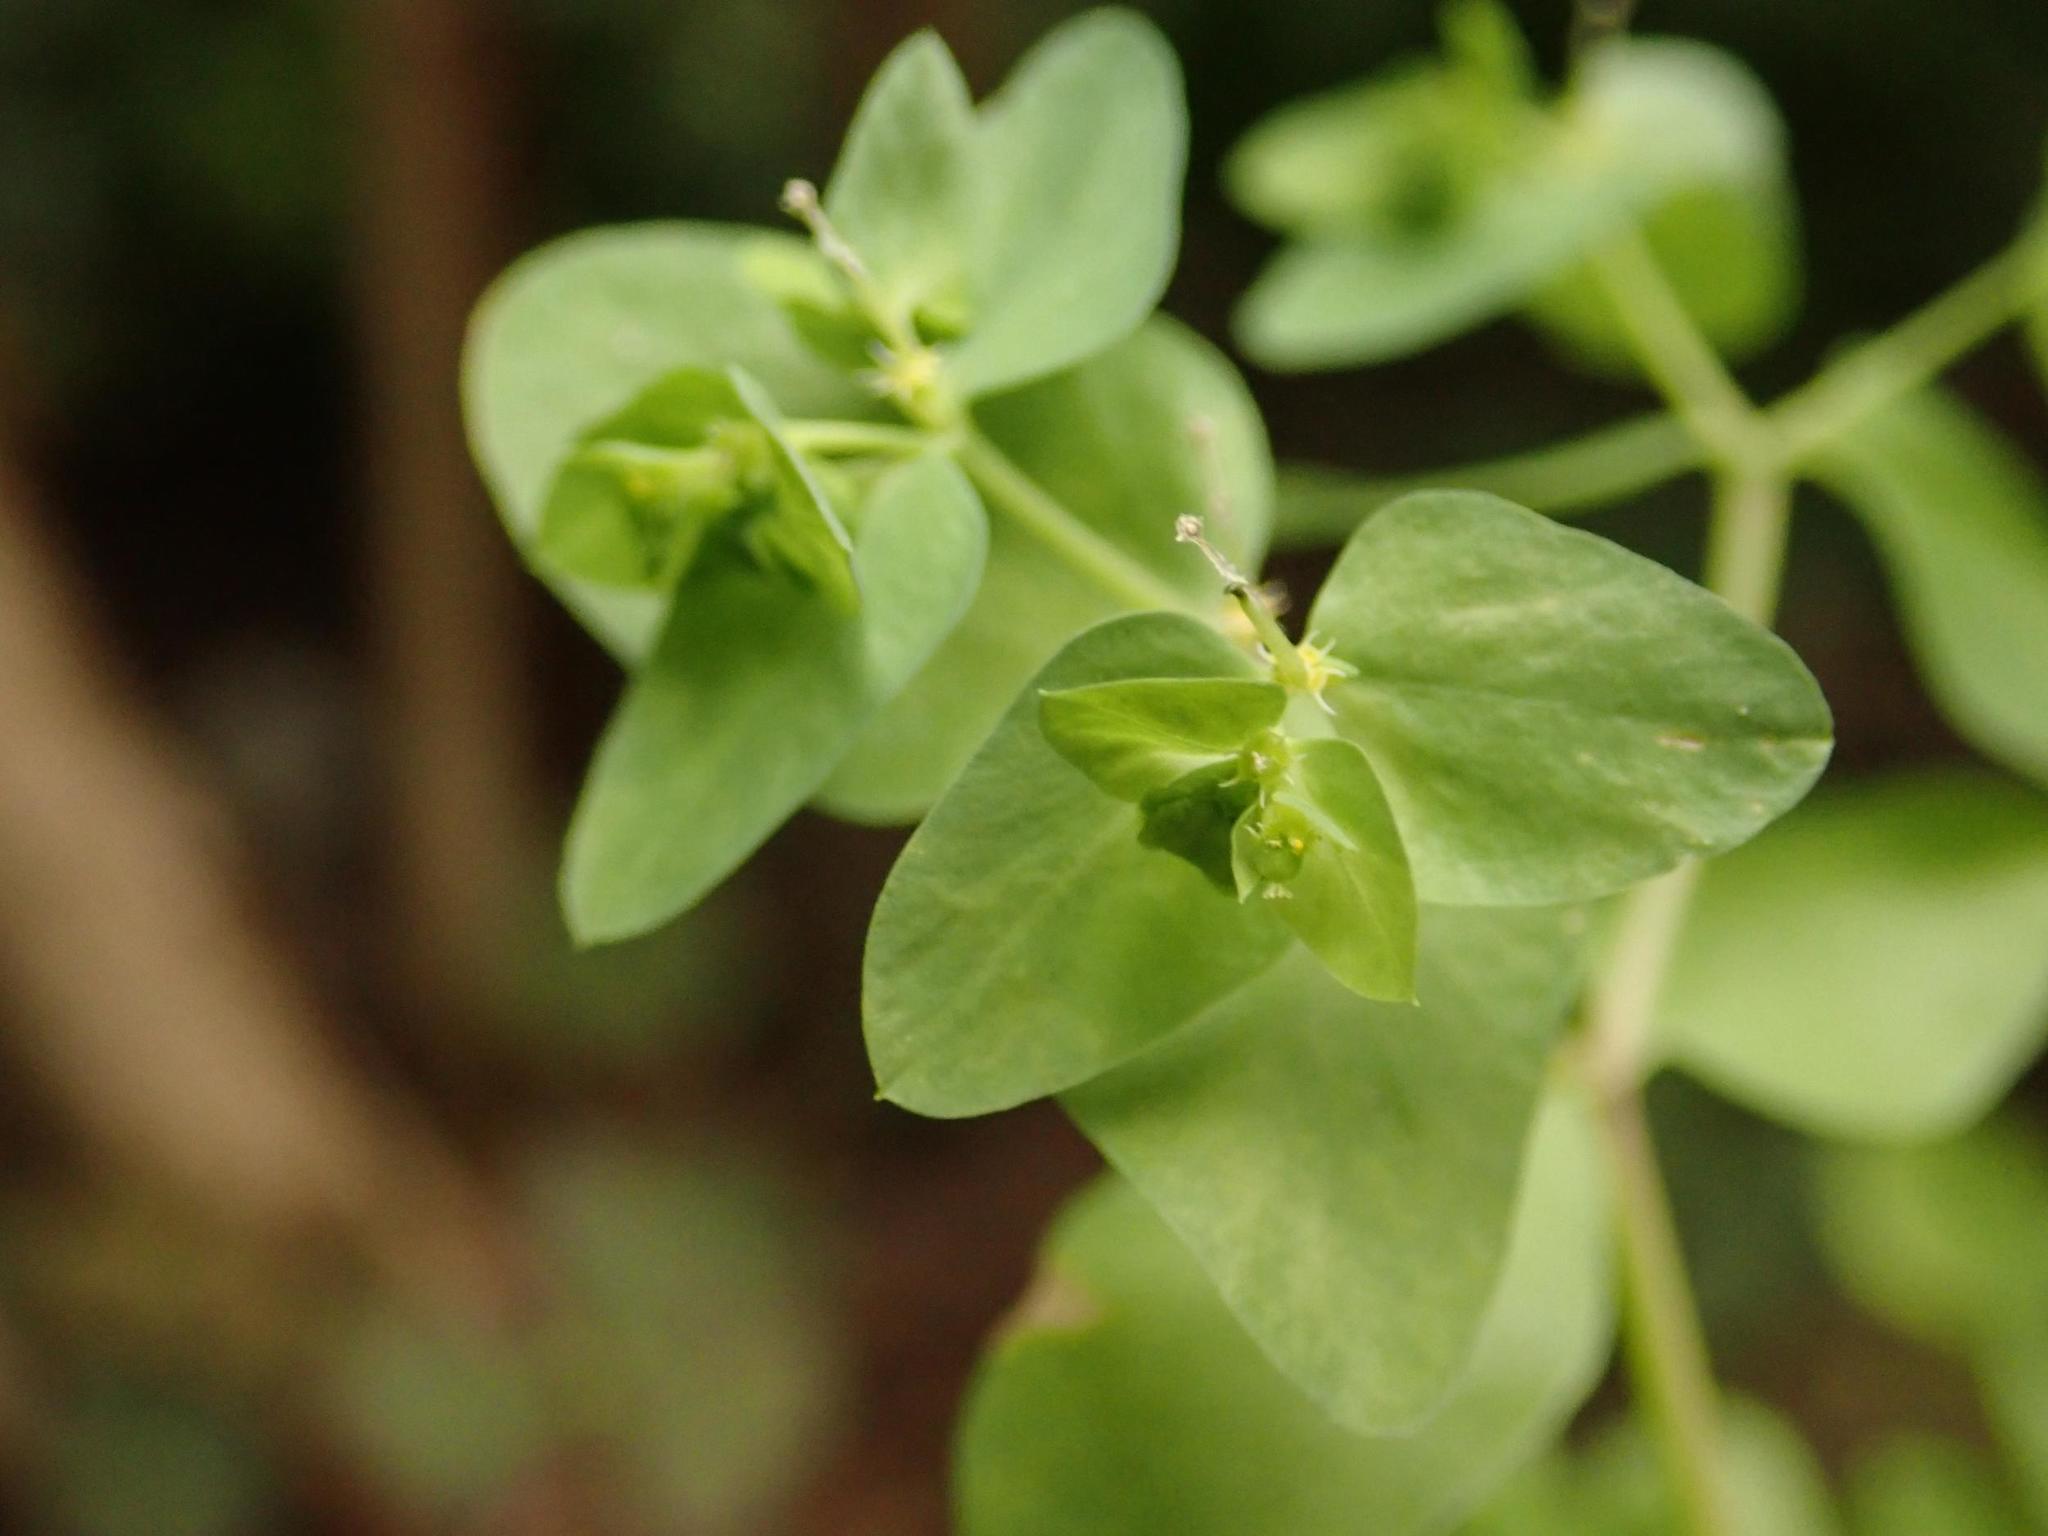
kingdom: Plantae
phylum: Tracheophyta
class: Magnoliopsida
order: Malpighiales
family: Euphorbiaceae
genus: Euphorbia
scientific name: Euphorbia peplus
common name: Petty spurge
